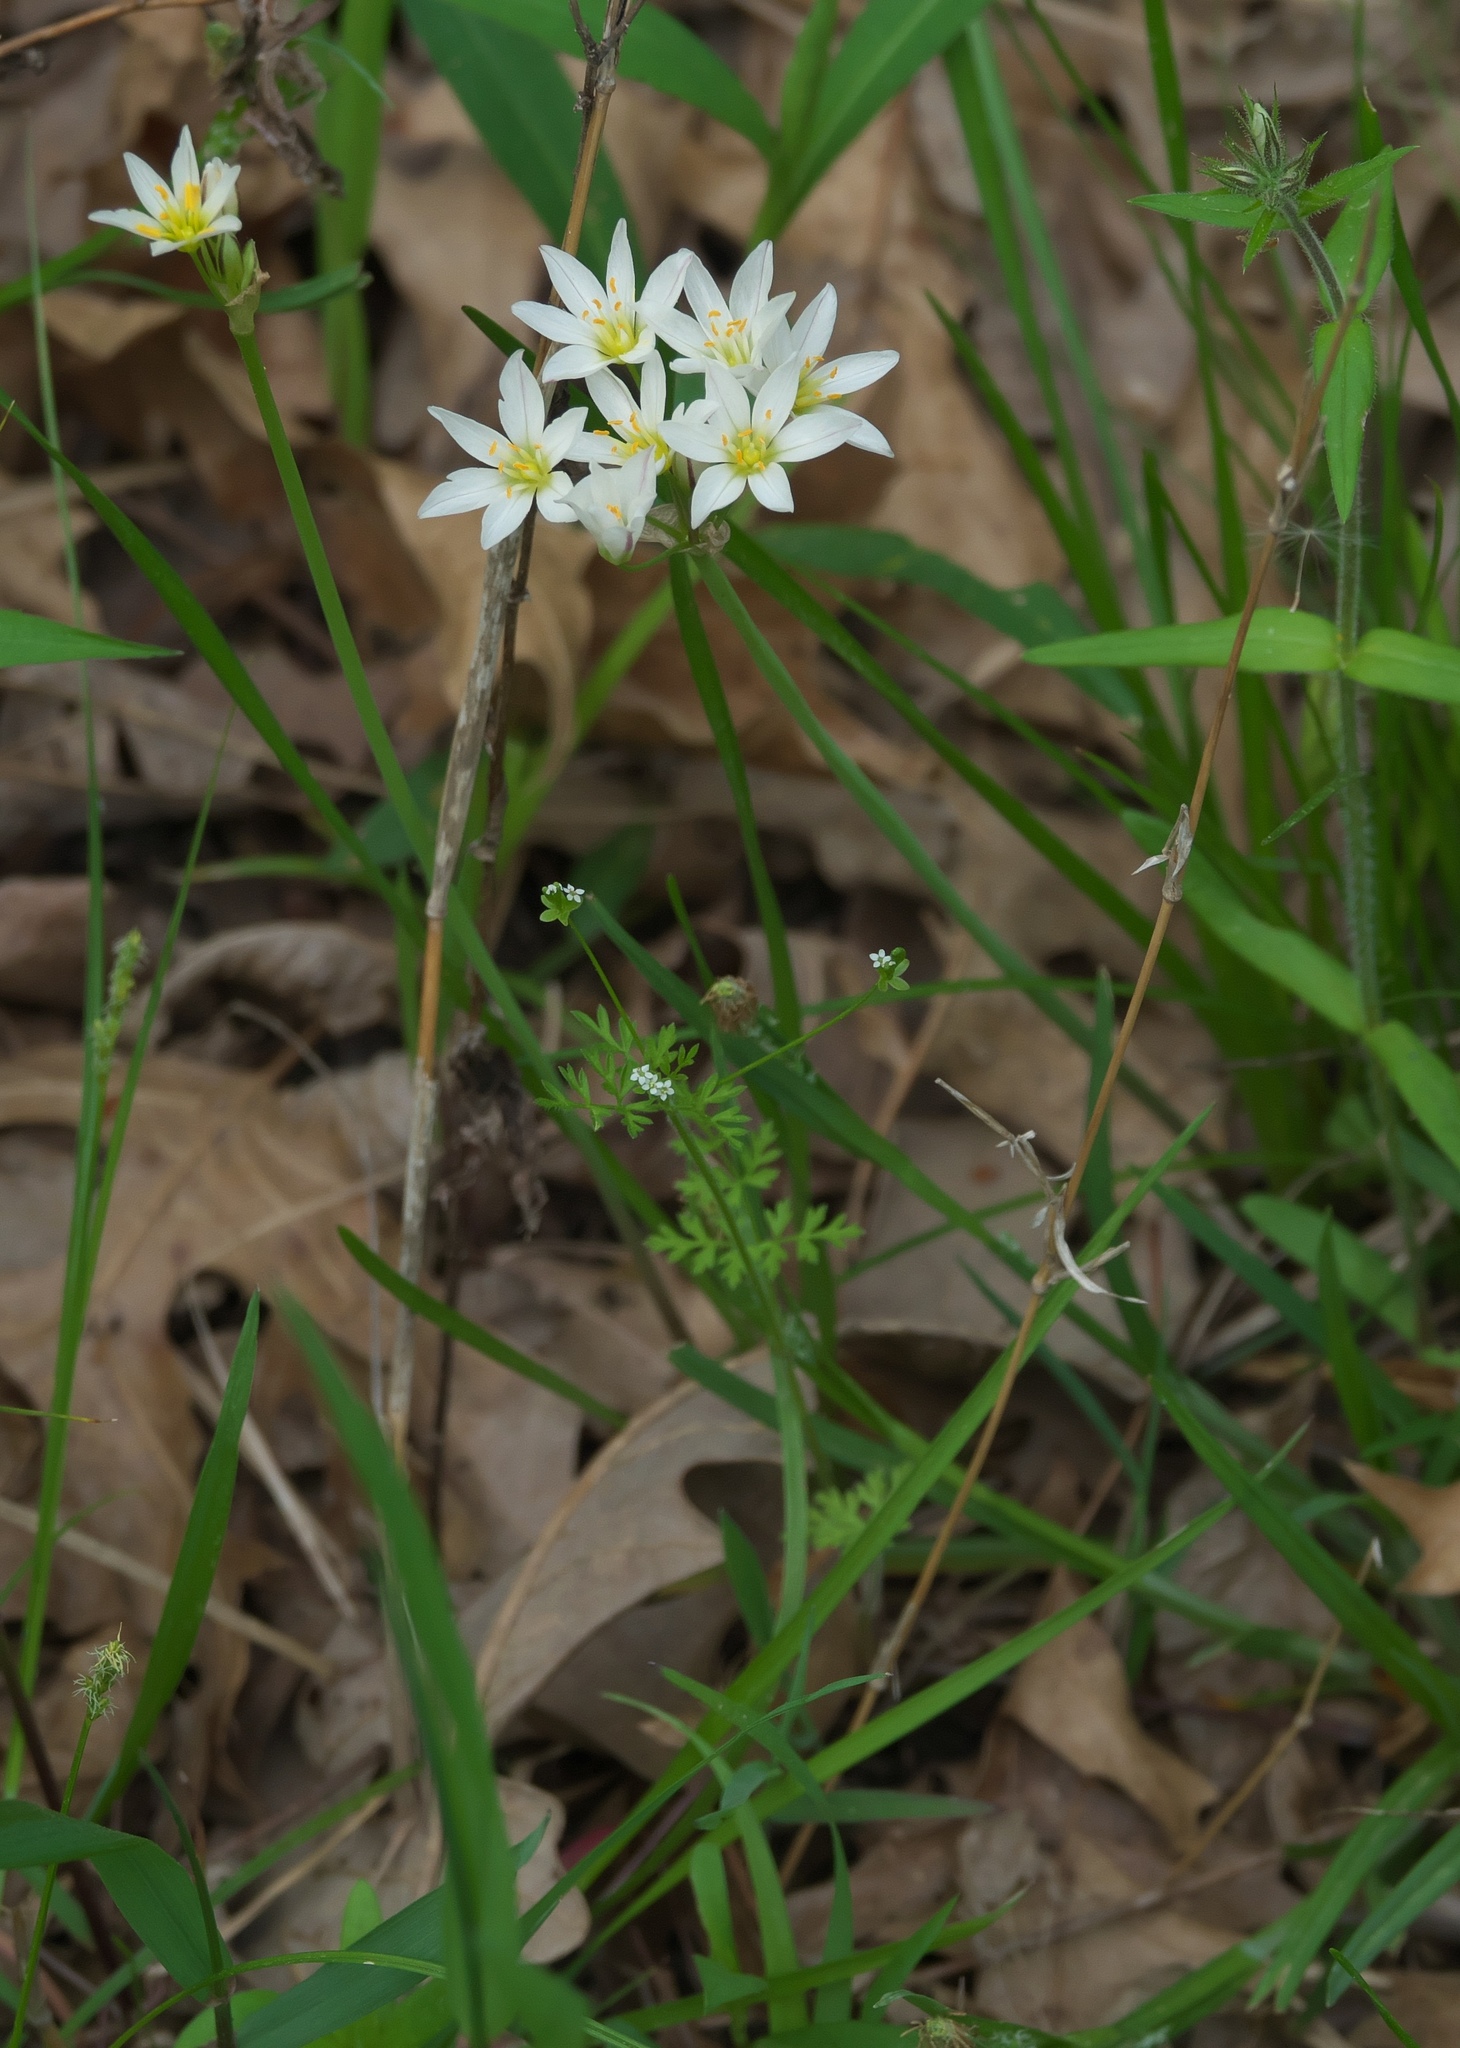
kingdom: Plantae
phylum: Tracheophyta
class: Liliopsida
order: Asparagales
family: Amaryllidaceae
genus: Nothoscordum
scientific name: Nothoscordum bivalve
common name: Crow-poison
